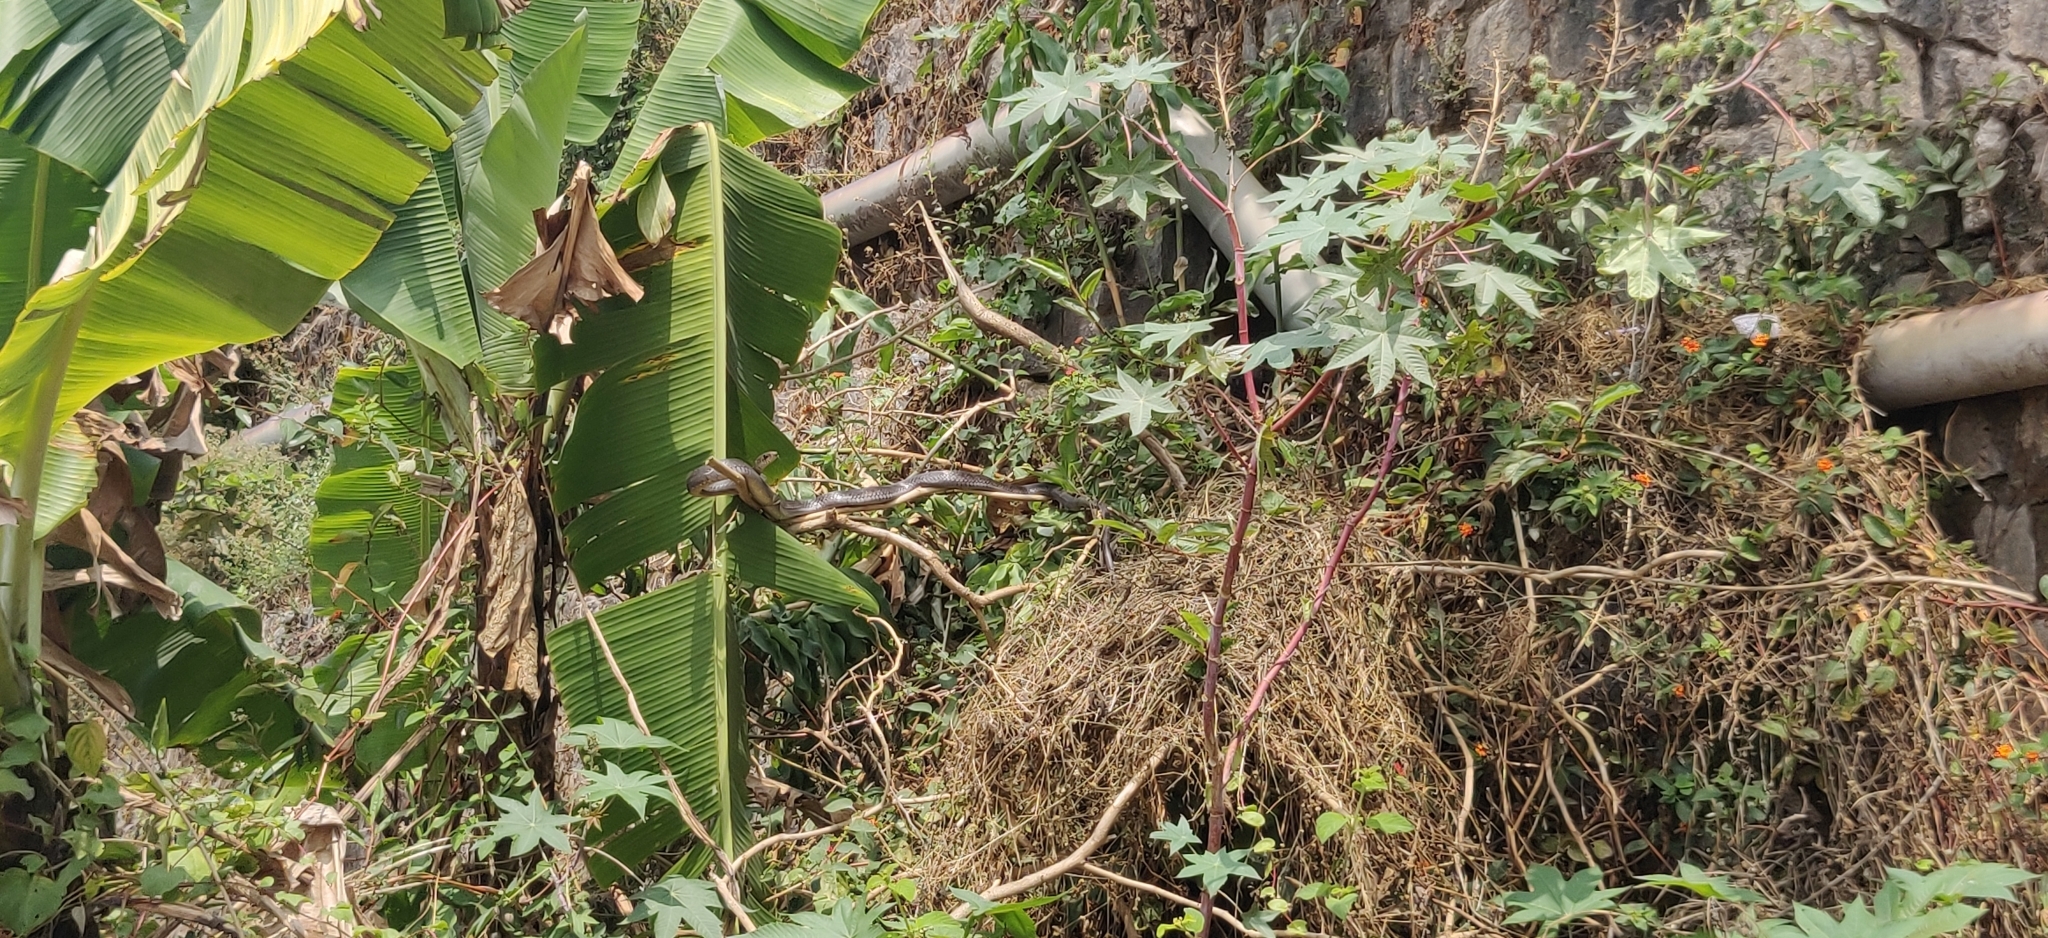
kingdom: Animalia
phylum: Chordata
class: Squamata
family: Colubridae
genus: Ptyas
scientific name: Ptyas mucosa
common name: Oriental ratsnake
